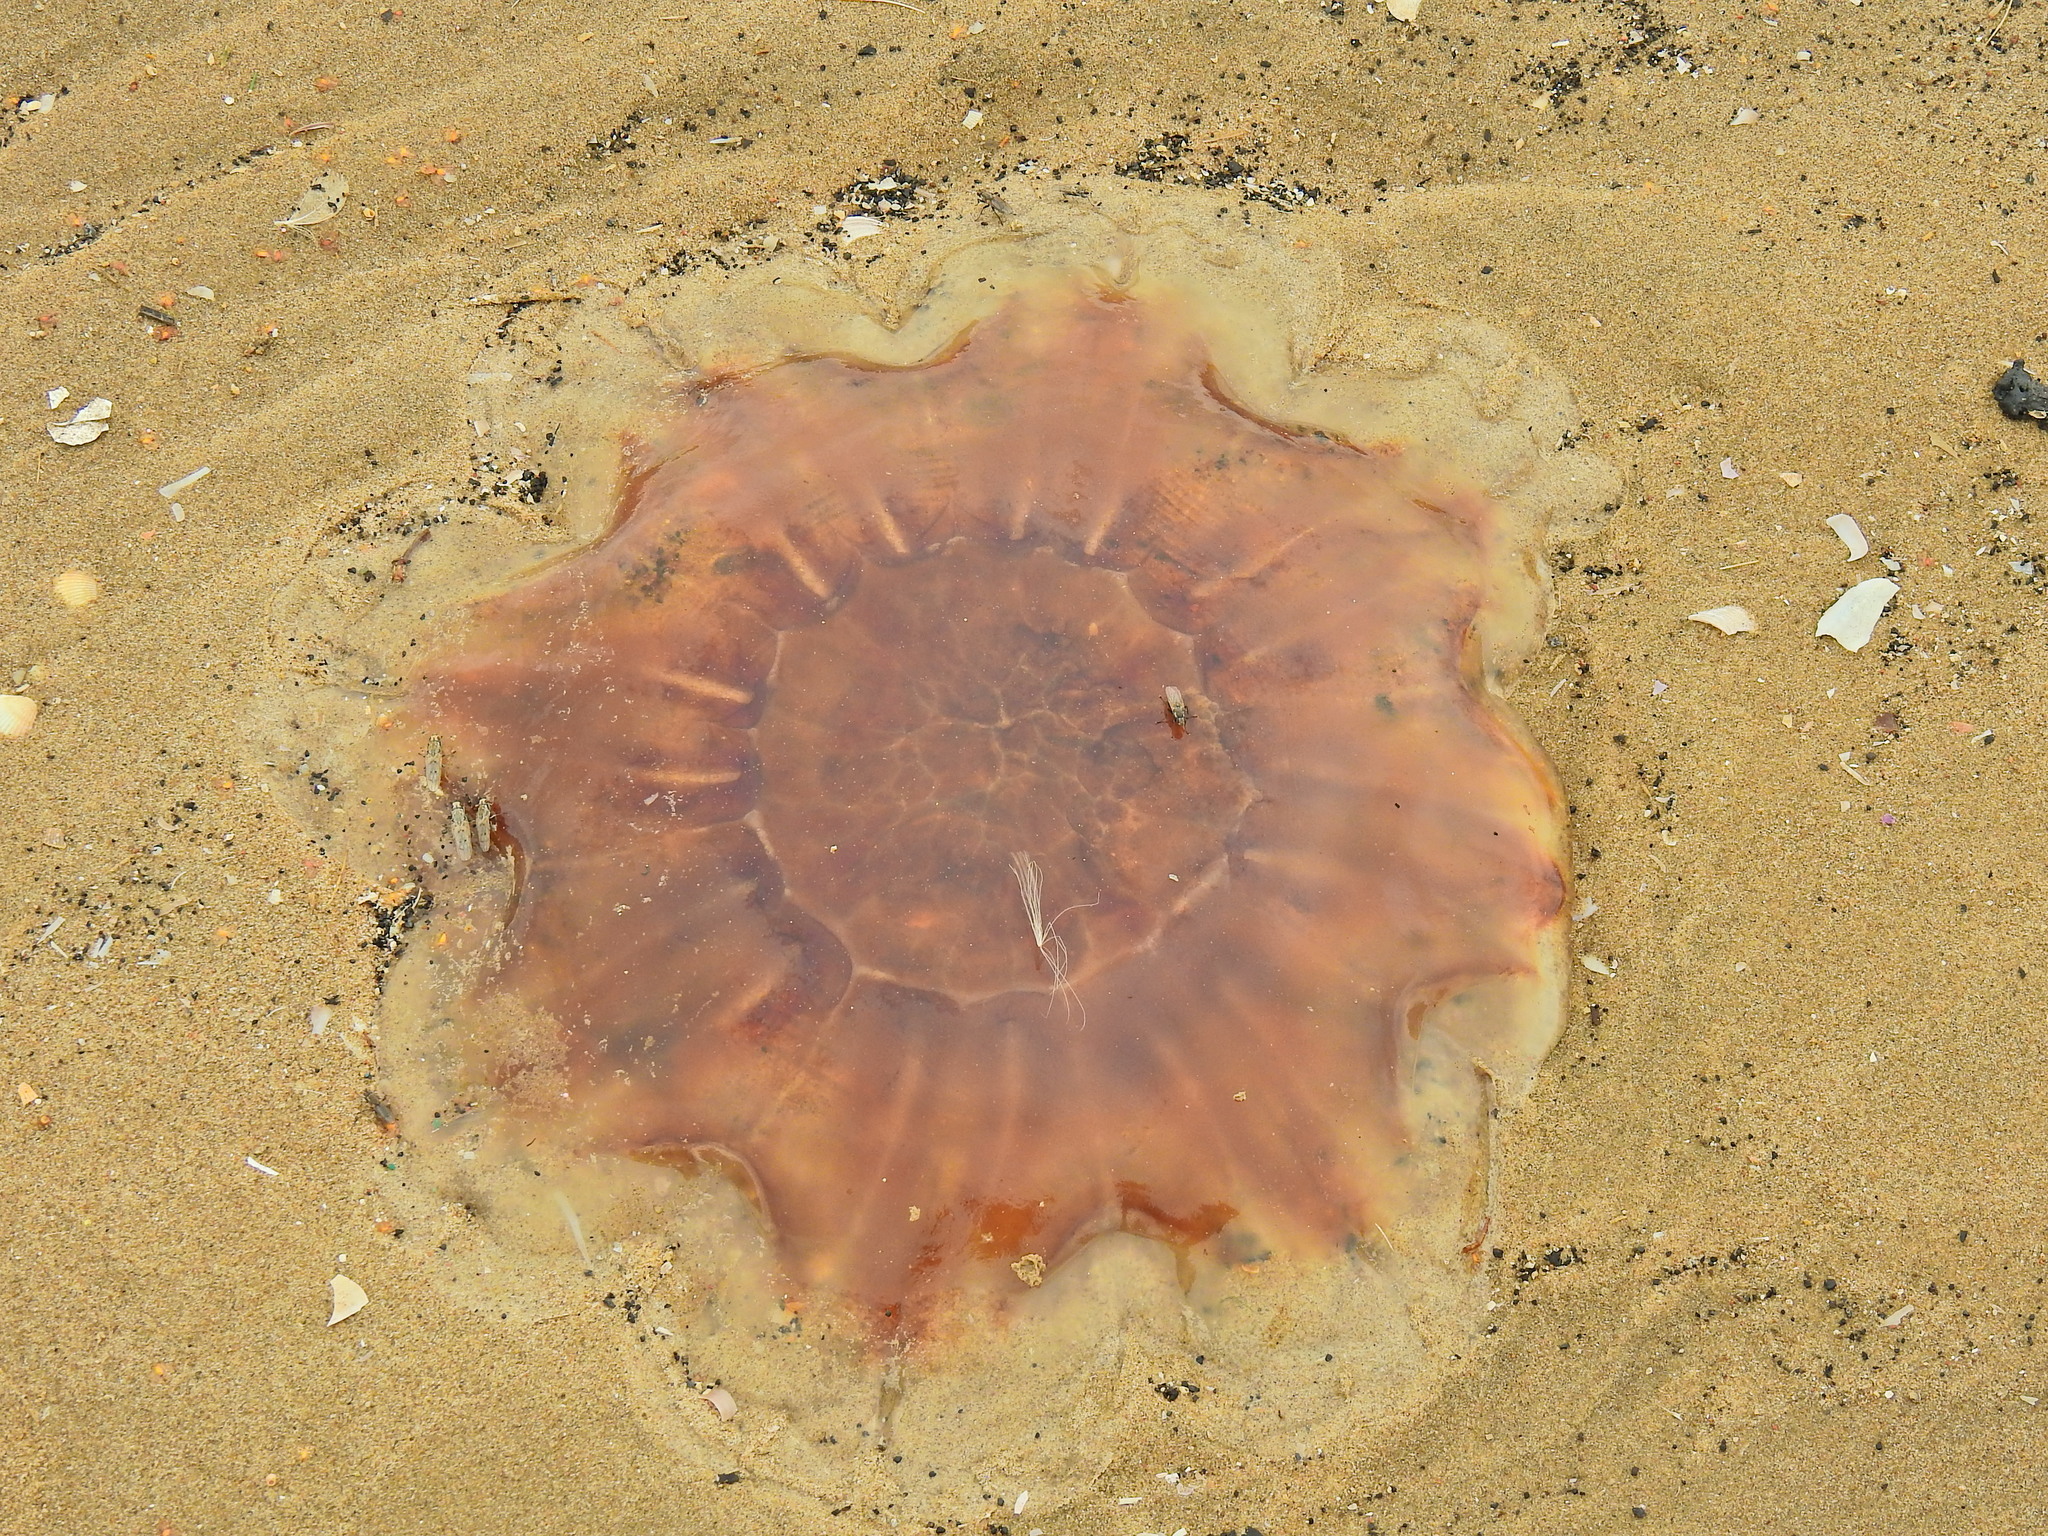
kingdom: Animalia
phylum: Cnidaria
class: Scyphozoa
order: Semaeostomeae
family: Cyaneidae
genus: Cyanea
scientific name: Cyanea capillata
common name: Lion's mane jellyfish
